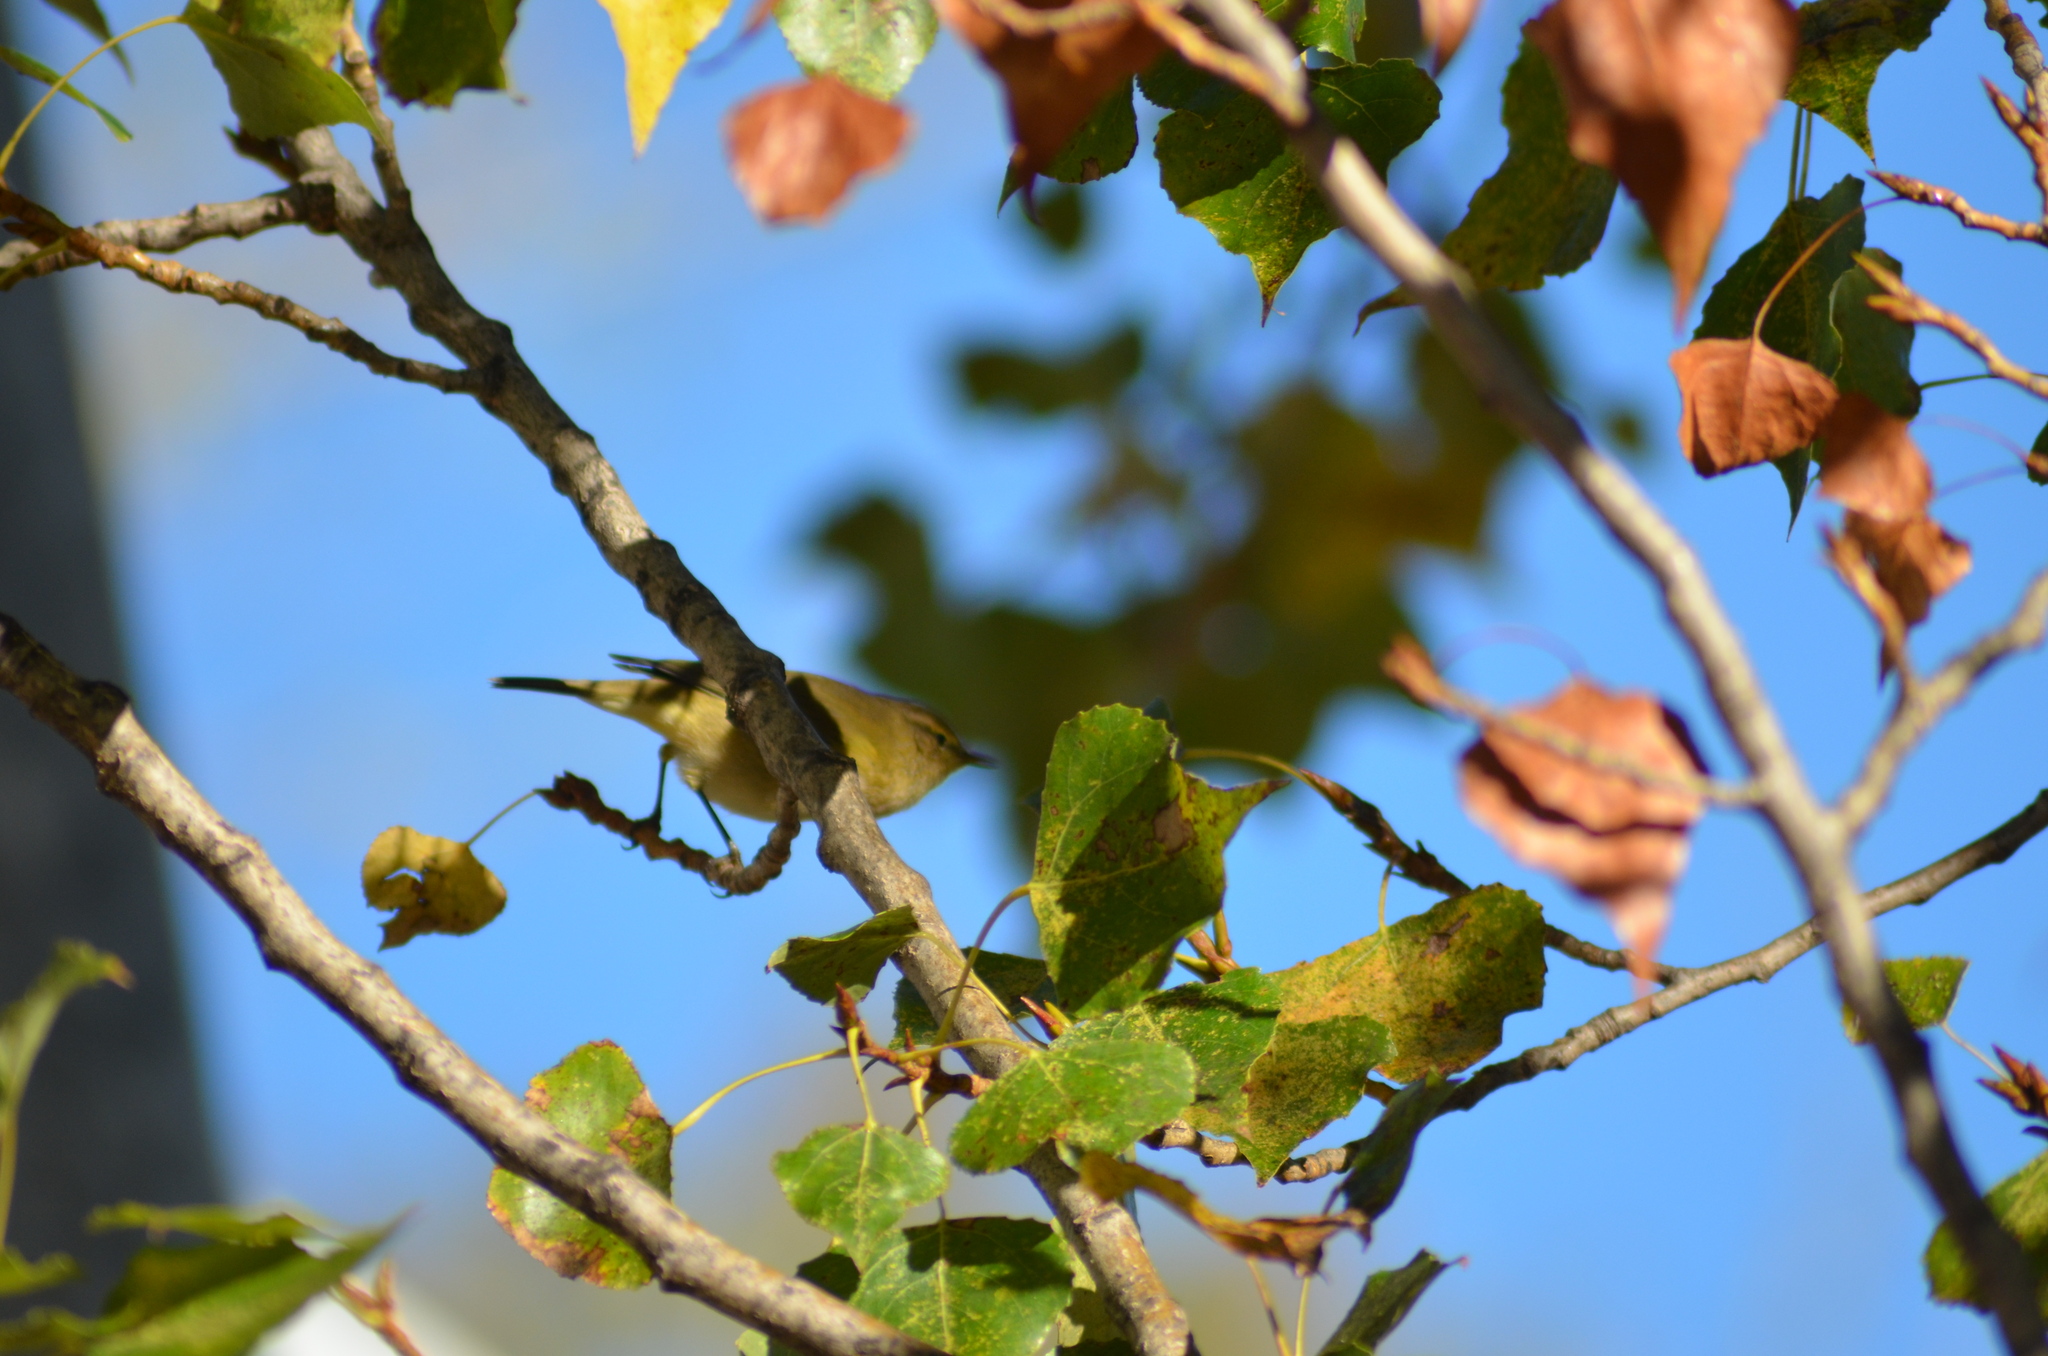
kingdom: Animalia
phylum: Chordata
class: Aves
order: Passeriformes
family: Phylloscopidae
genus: Phylloscopus
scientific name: Phylloscopus collybita
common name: Common chiffchaff
